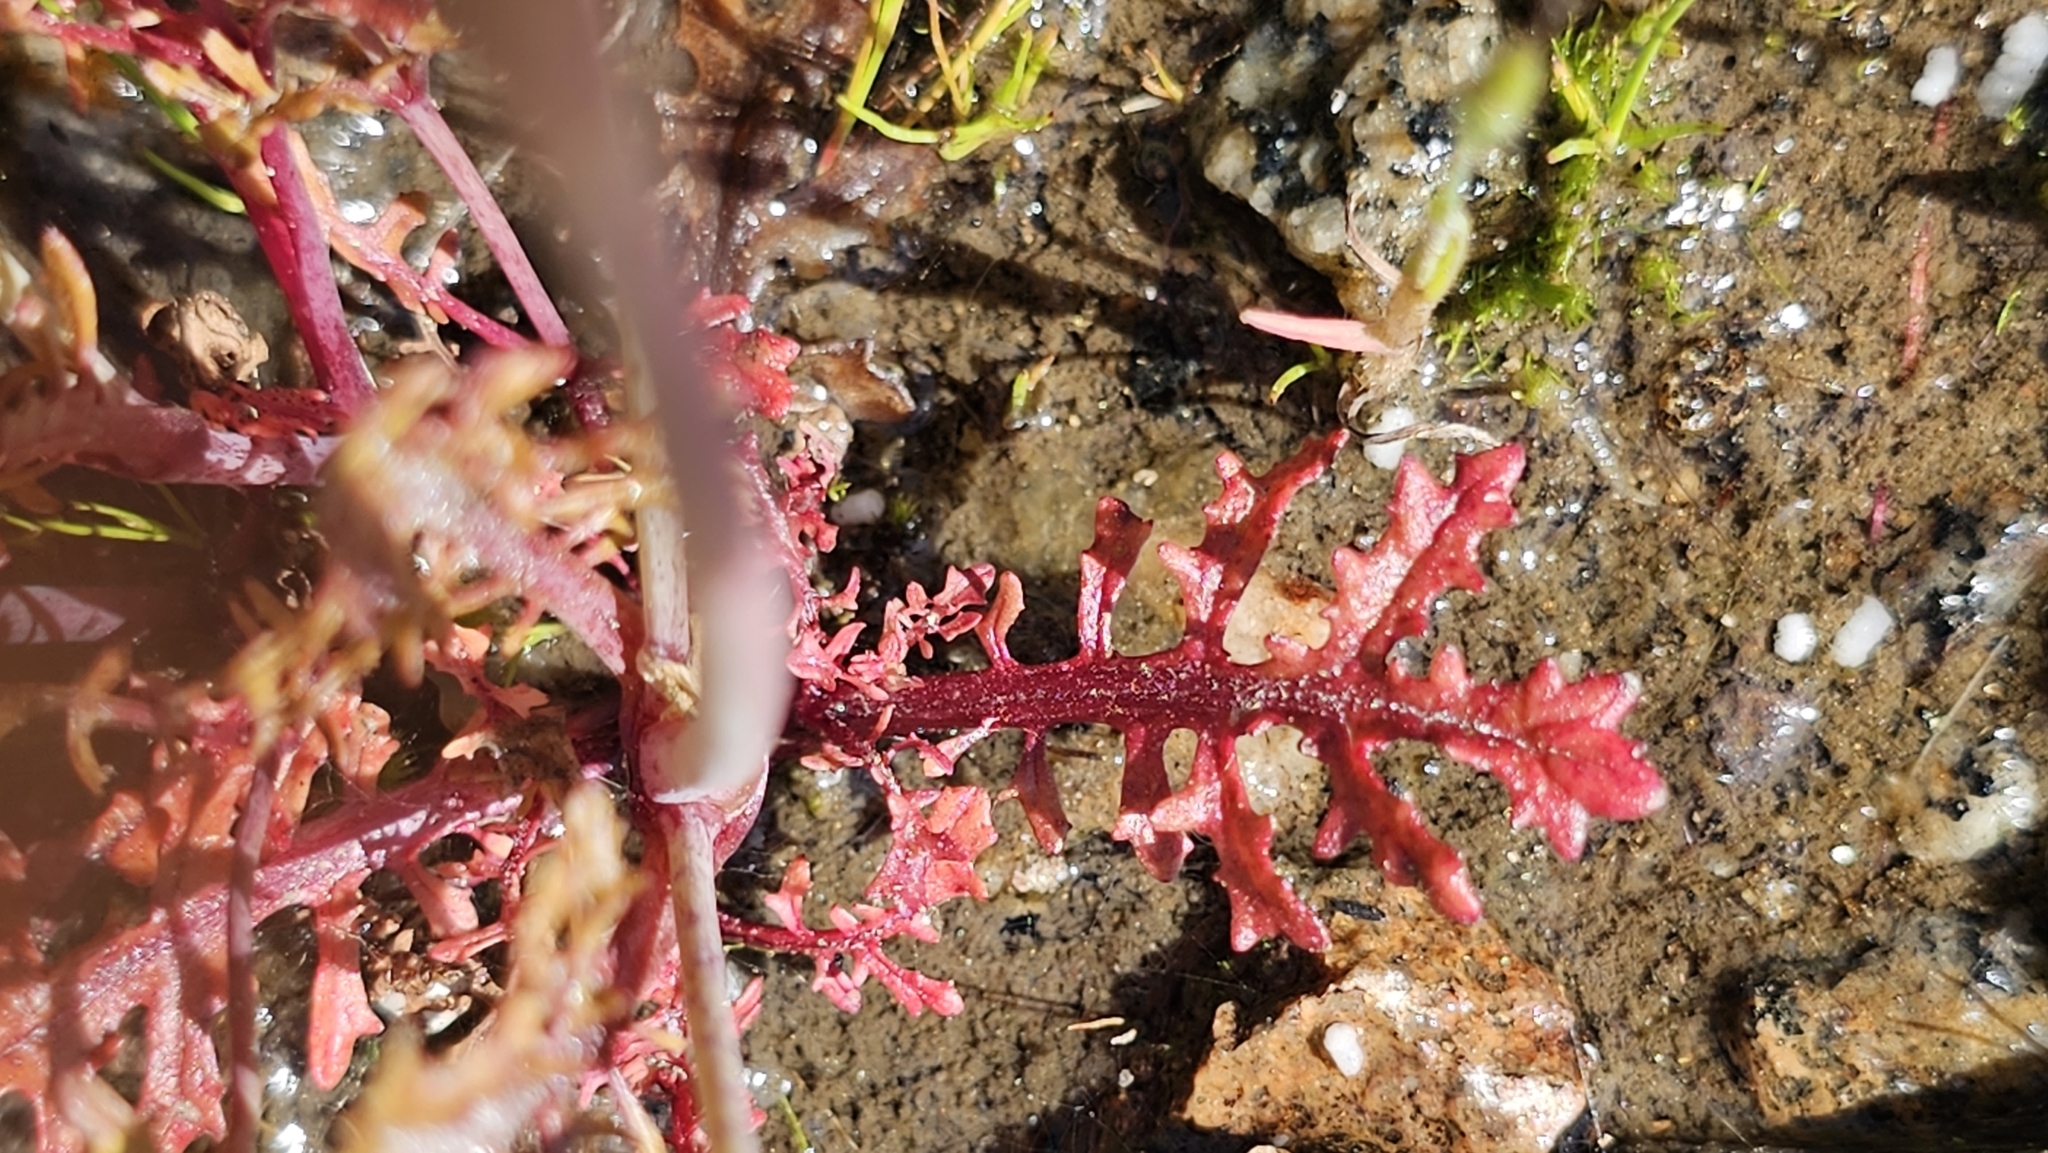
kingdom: Plantae
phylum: Tracheophyta
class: Magnoliopsida
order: Lamiales
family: Phrymaceae
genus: Erythranthe
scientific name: Erythranthe laciniata
